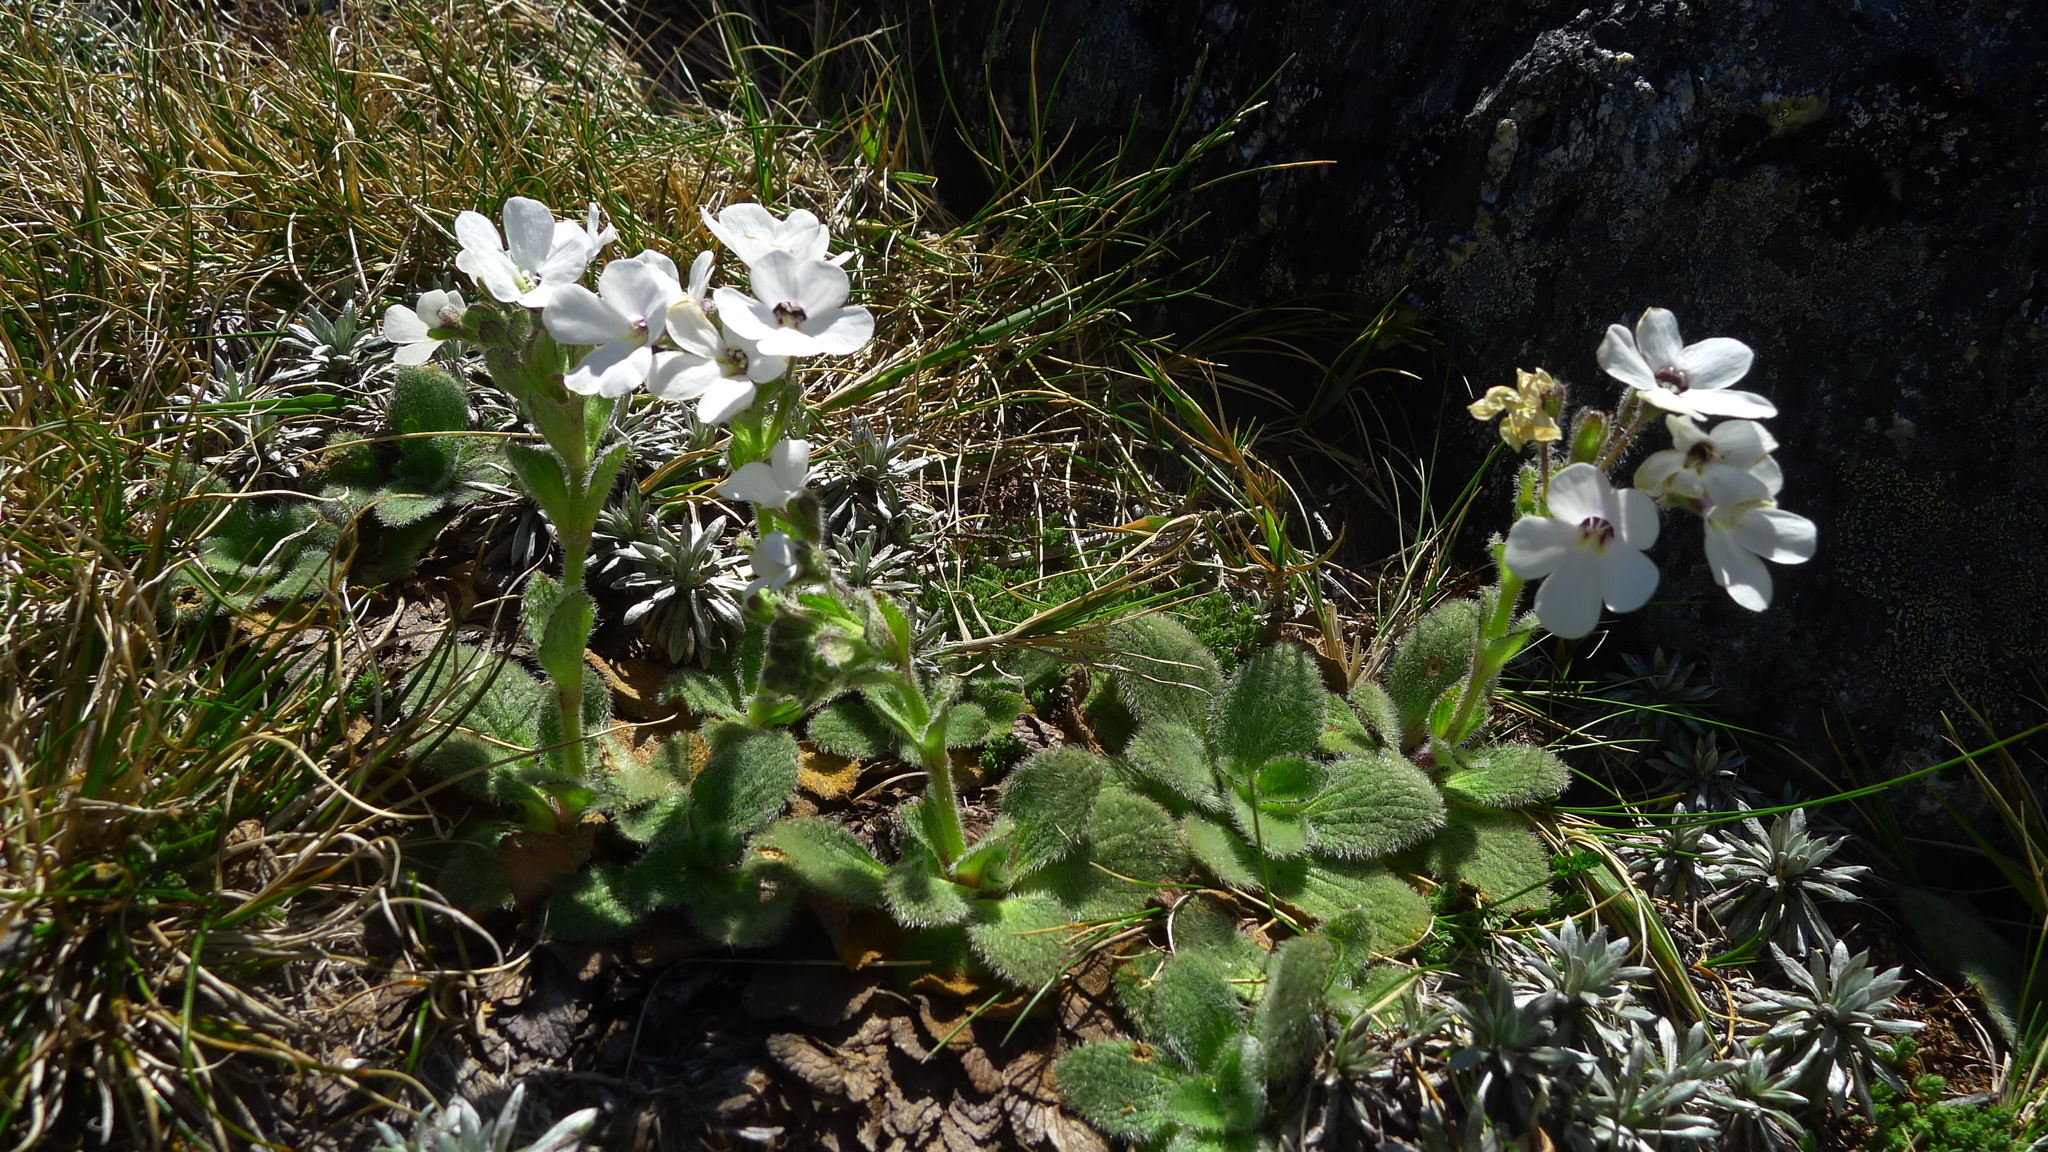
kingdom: Plantae
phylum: Tracheophyta
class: Magnoliopsida
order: Lamiales
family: Plantaginaceae
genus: Ourisia
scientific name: Ourisia sessilifolia
